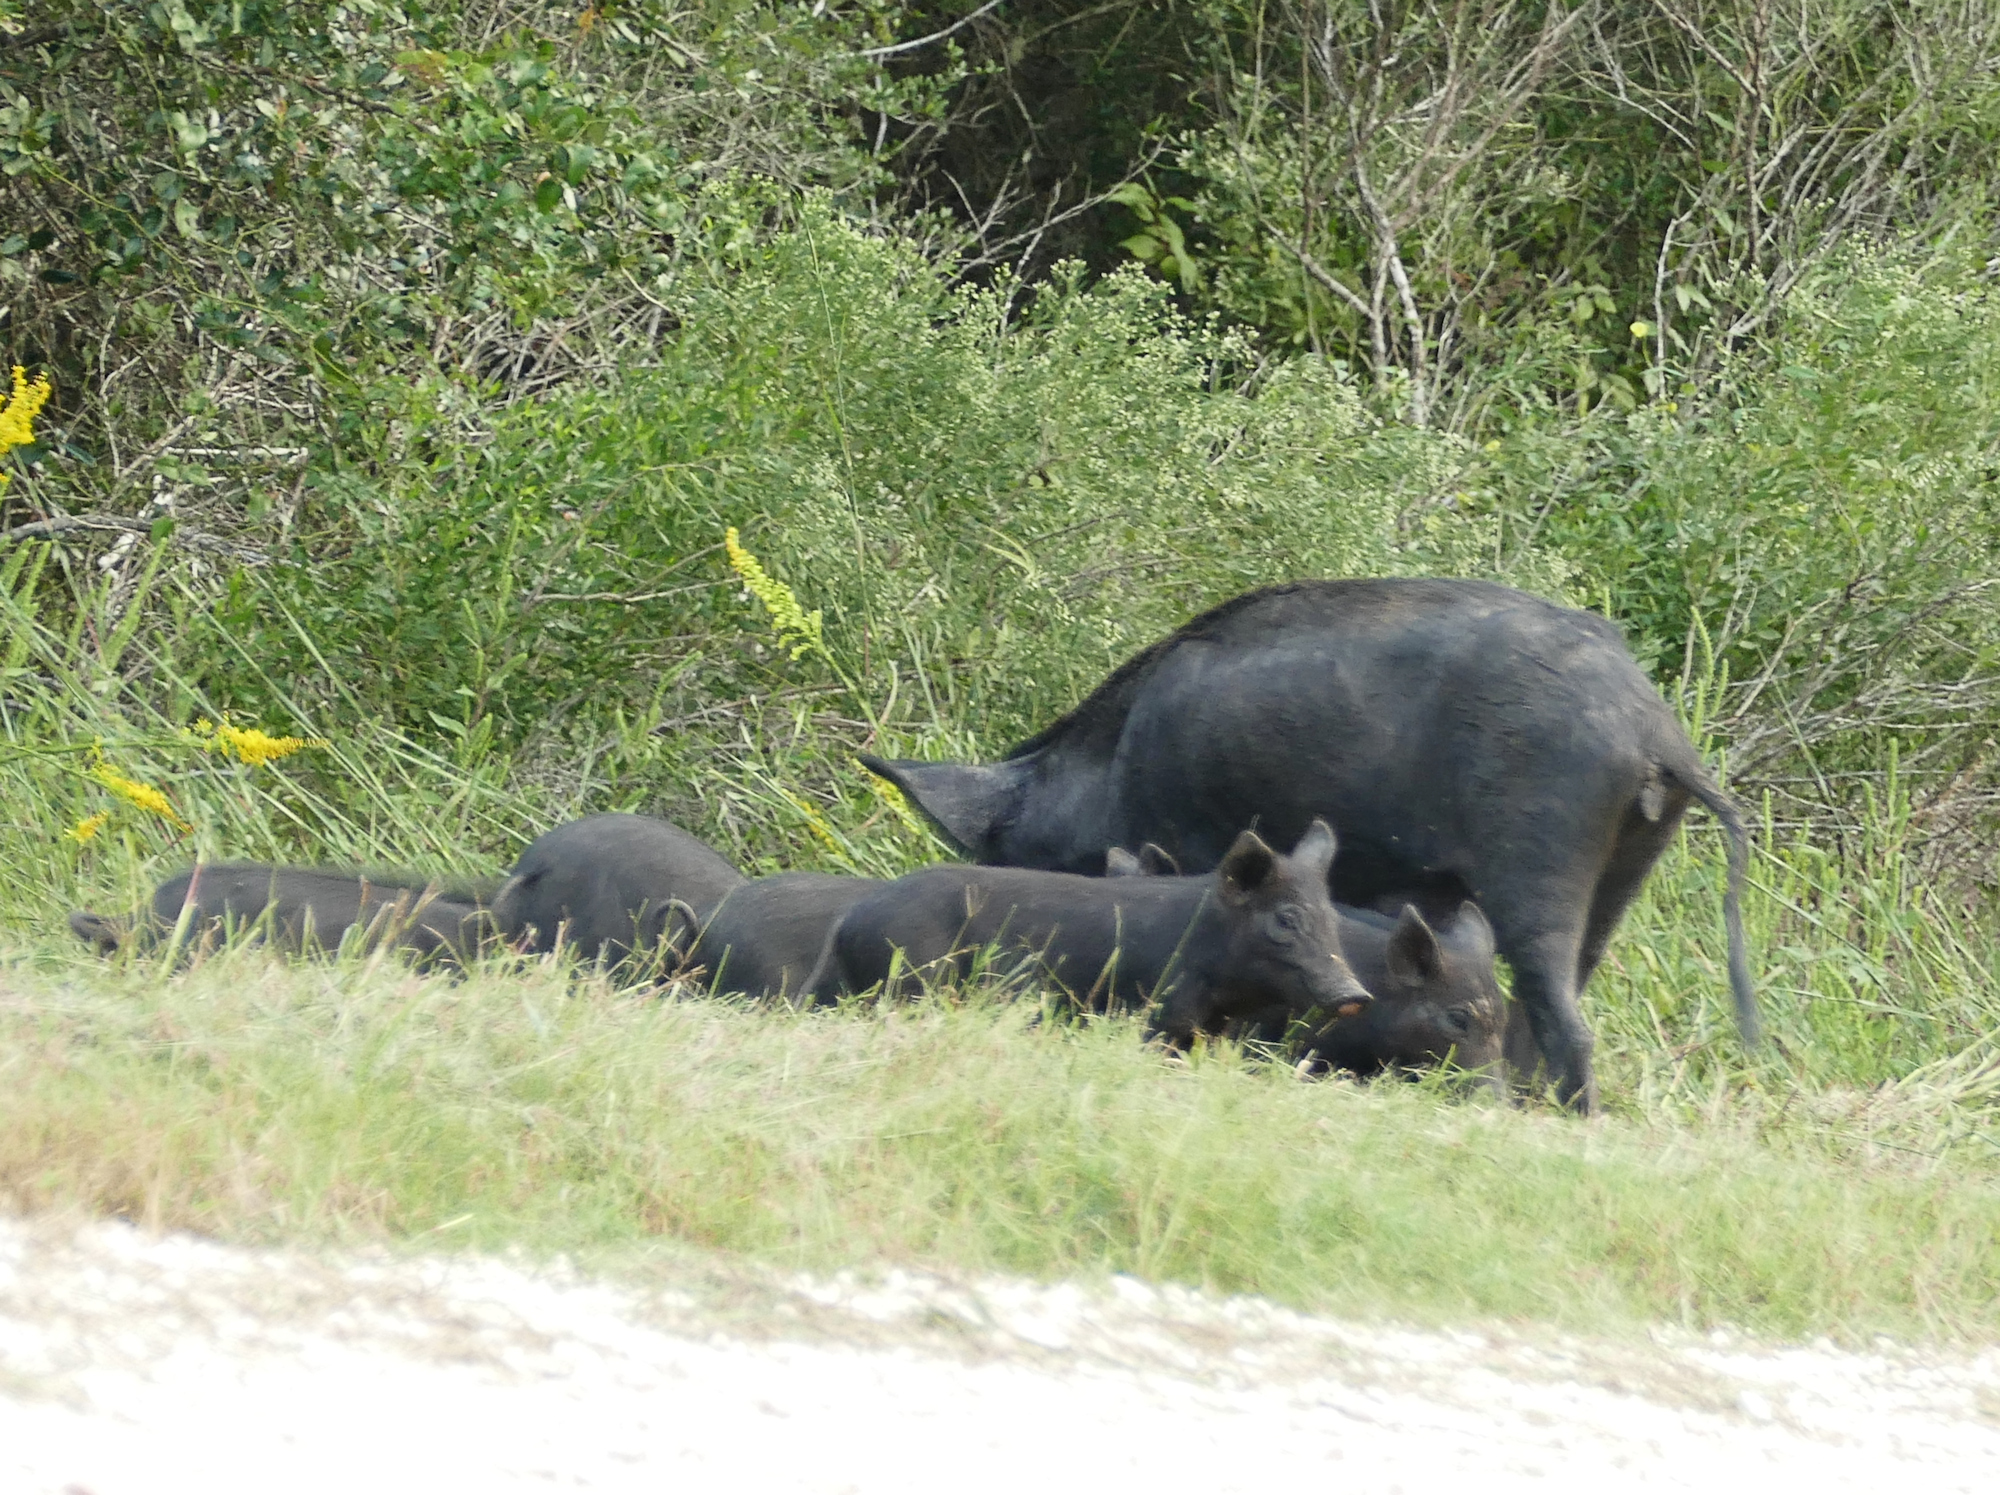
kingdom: Animalia
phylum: Chordata
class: Mammalia
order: Artiodactyla
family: Suidae
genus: Sus
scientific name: Sus scrofa
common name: Wild boar
